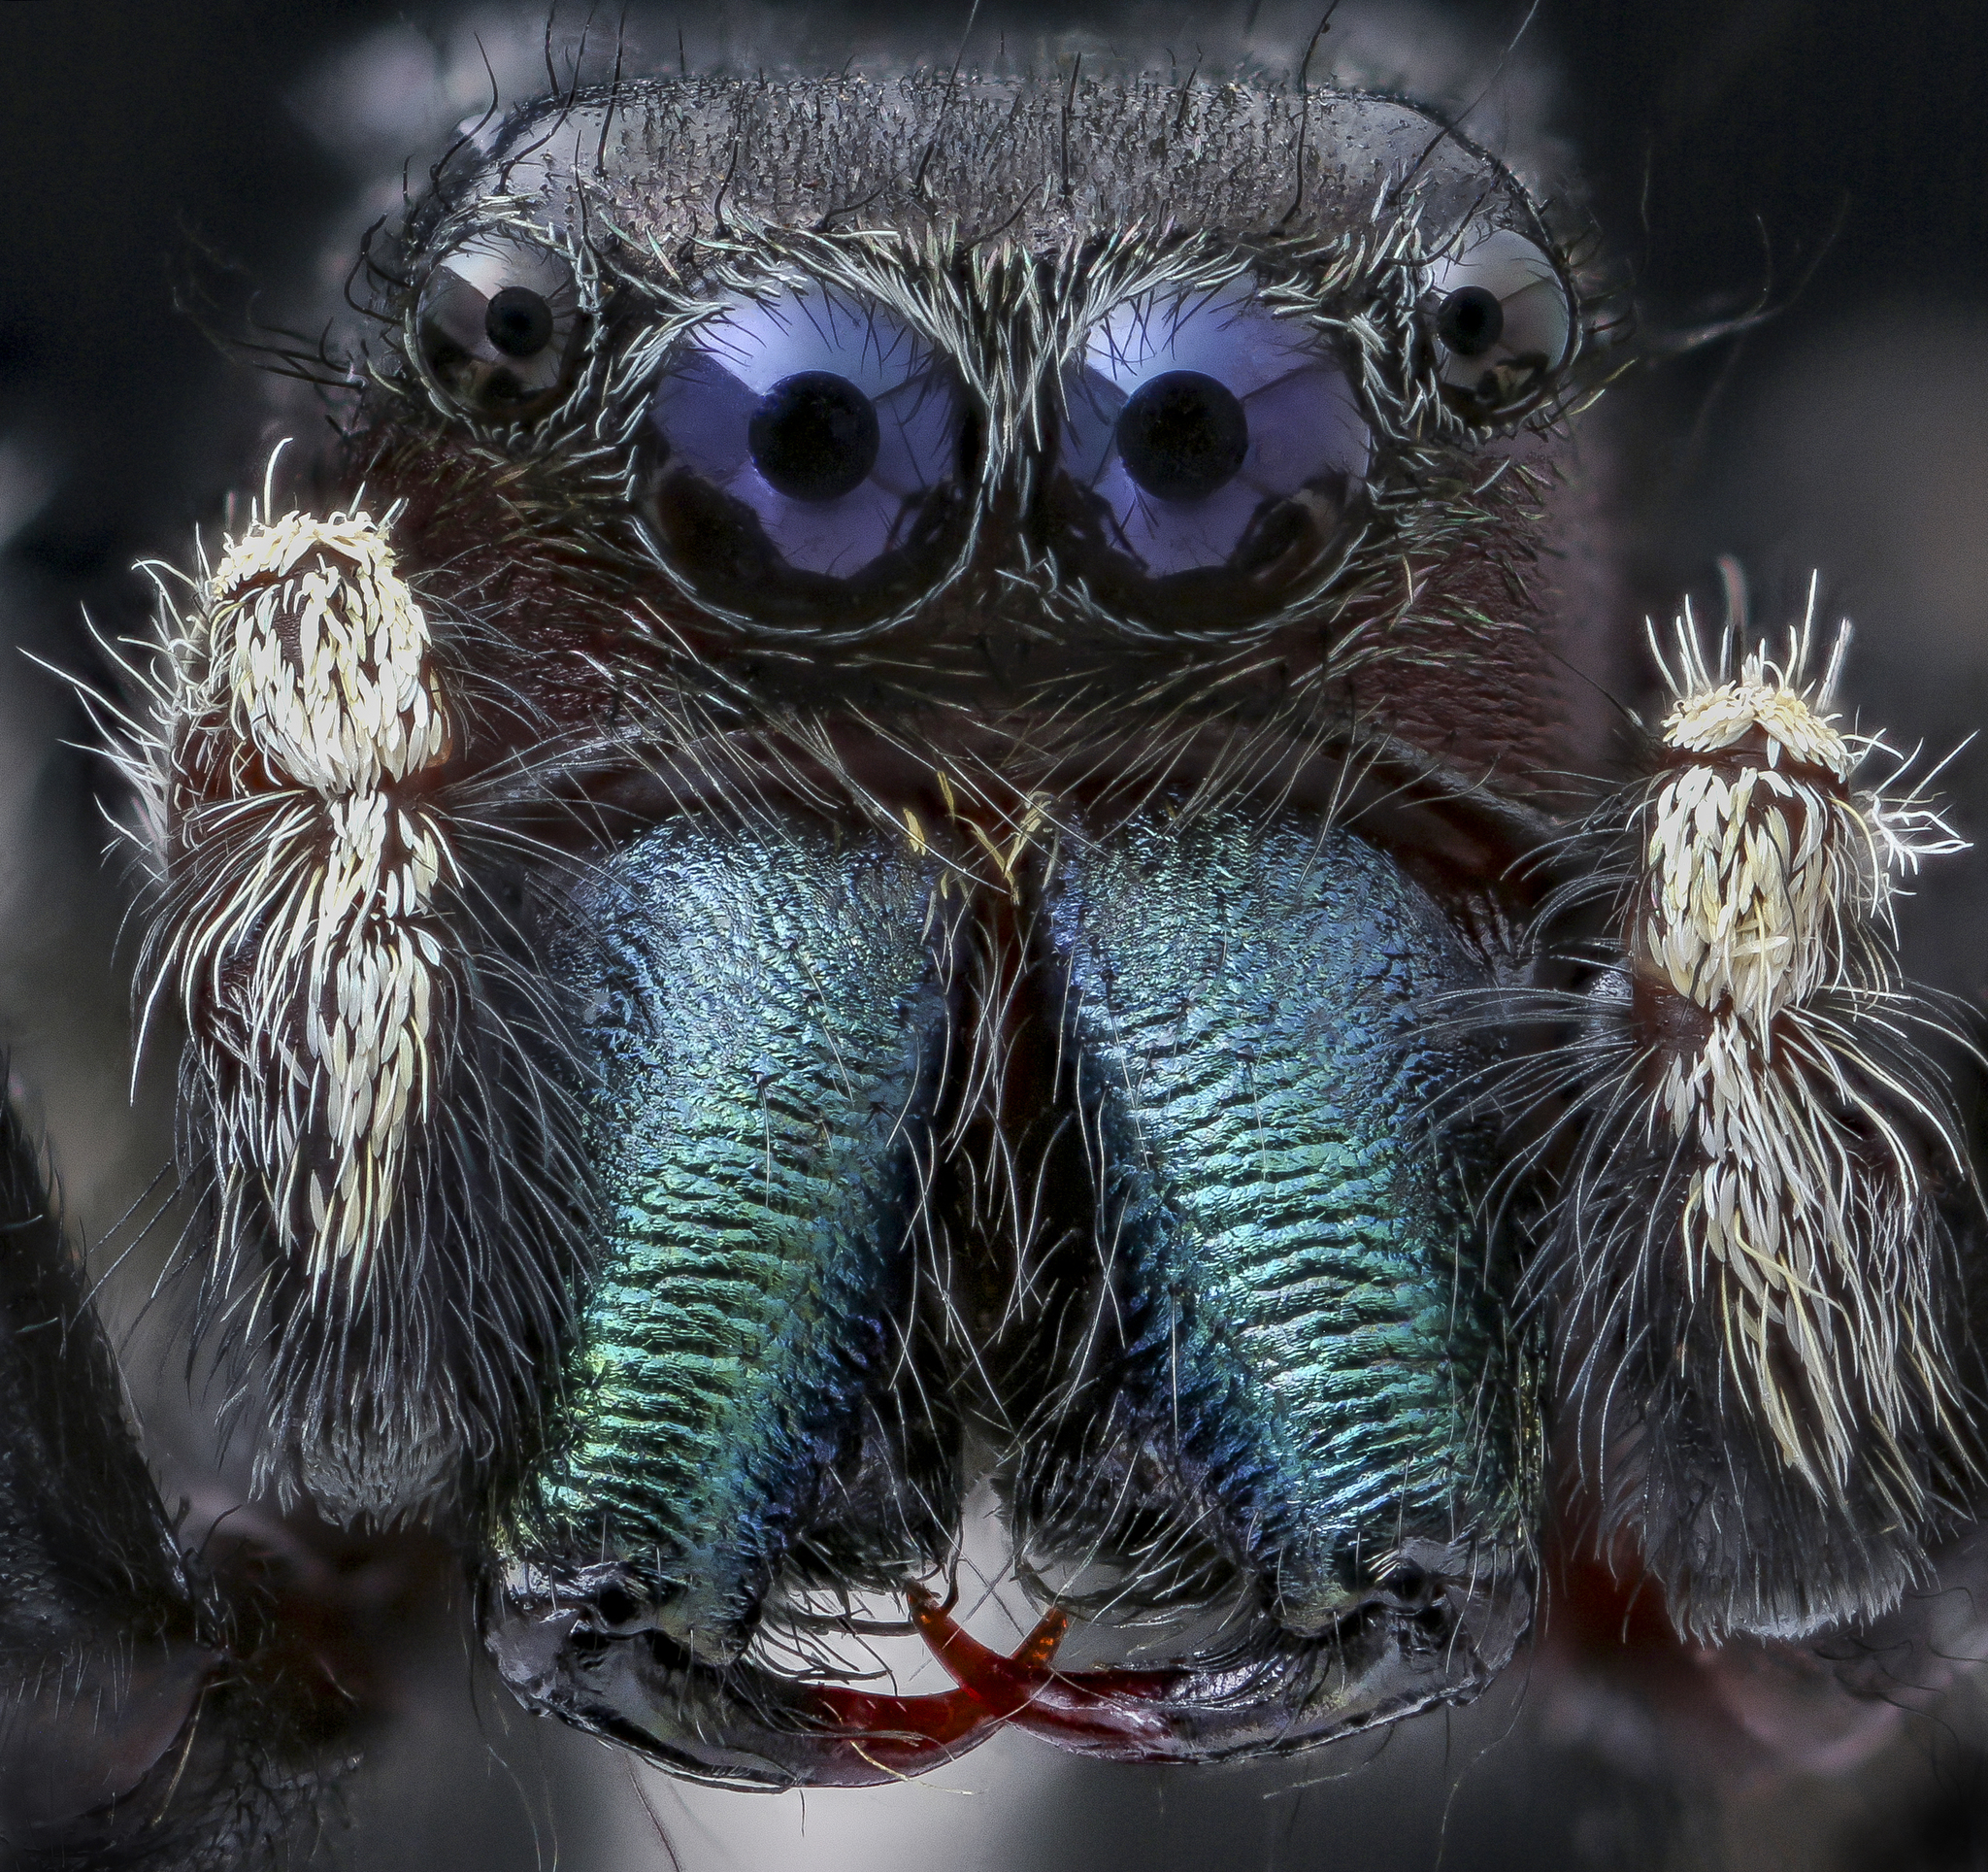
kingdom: Animalia
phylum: Arthropoda
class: Arachnida
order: Araneae
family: Salticidae
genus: Phidippus
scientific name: Phidippus clarus
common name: Brilliant jumping spider
